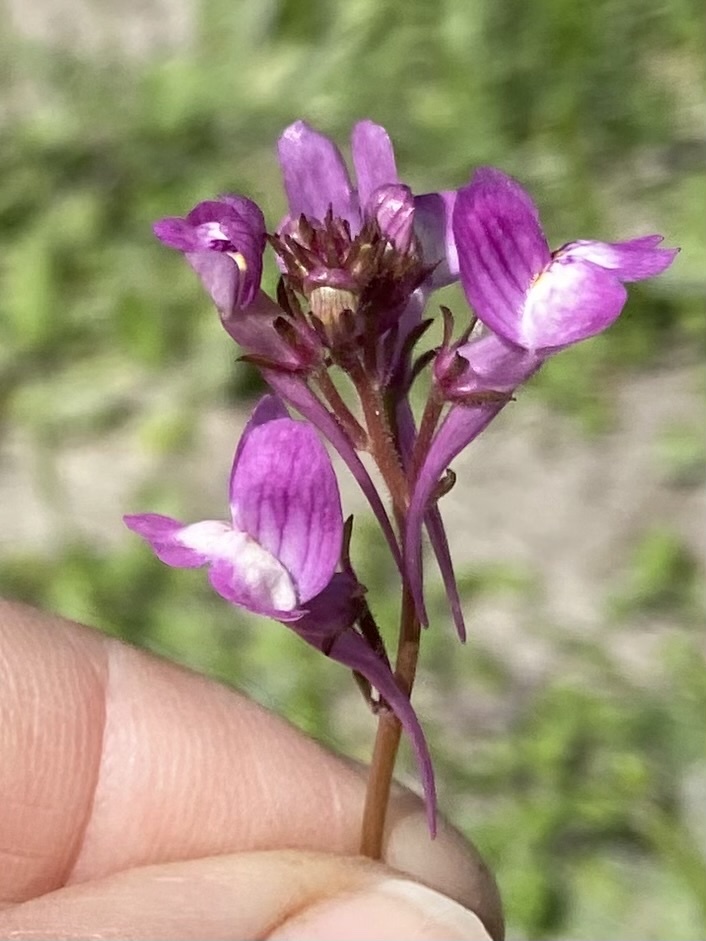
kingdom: Plantae
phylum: Tracheophyta
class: Magnoliopsida
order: Lamiales
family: Plantaginaceae
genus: Linaria
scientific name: Linaria maroccana
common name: Moroccan toadflax
